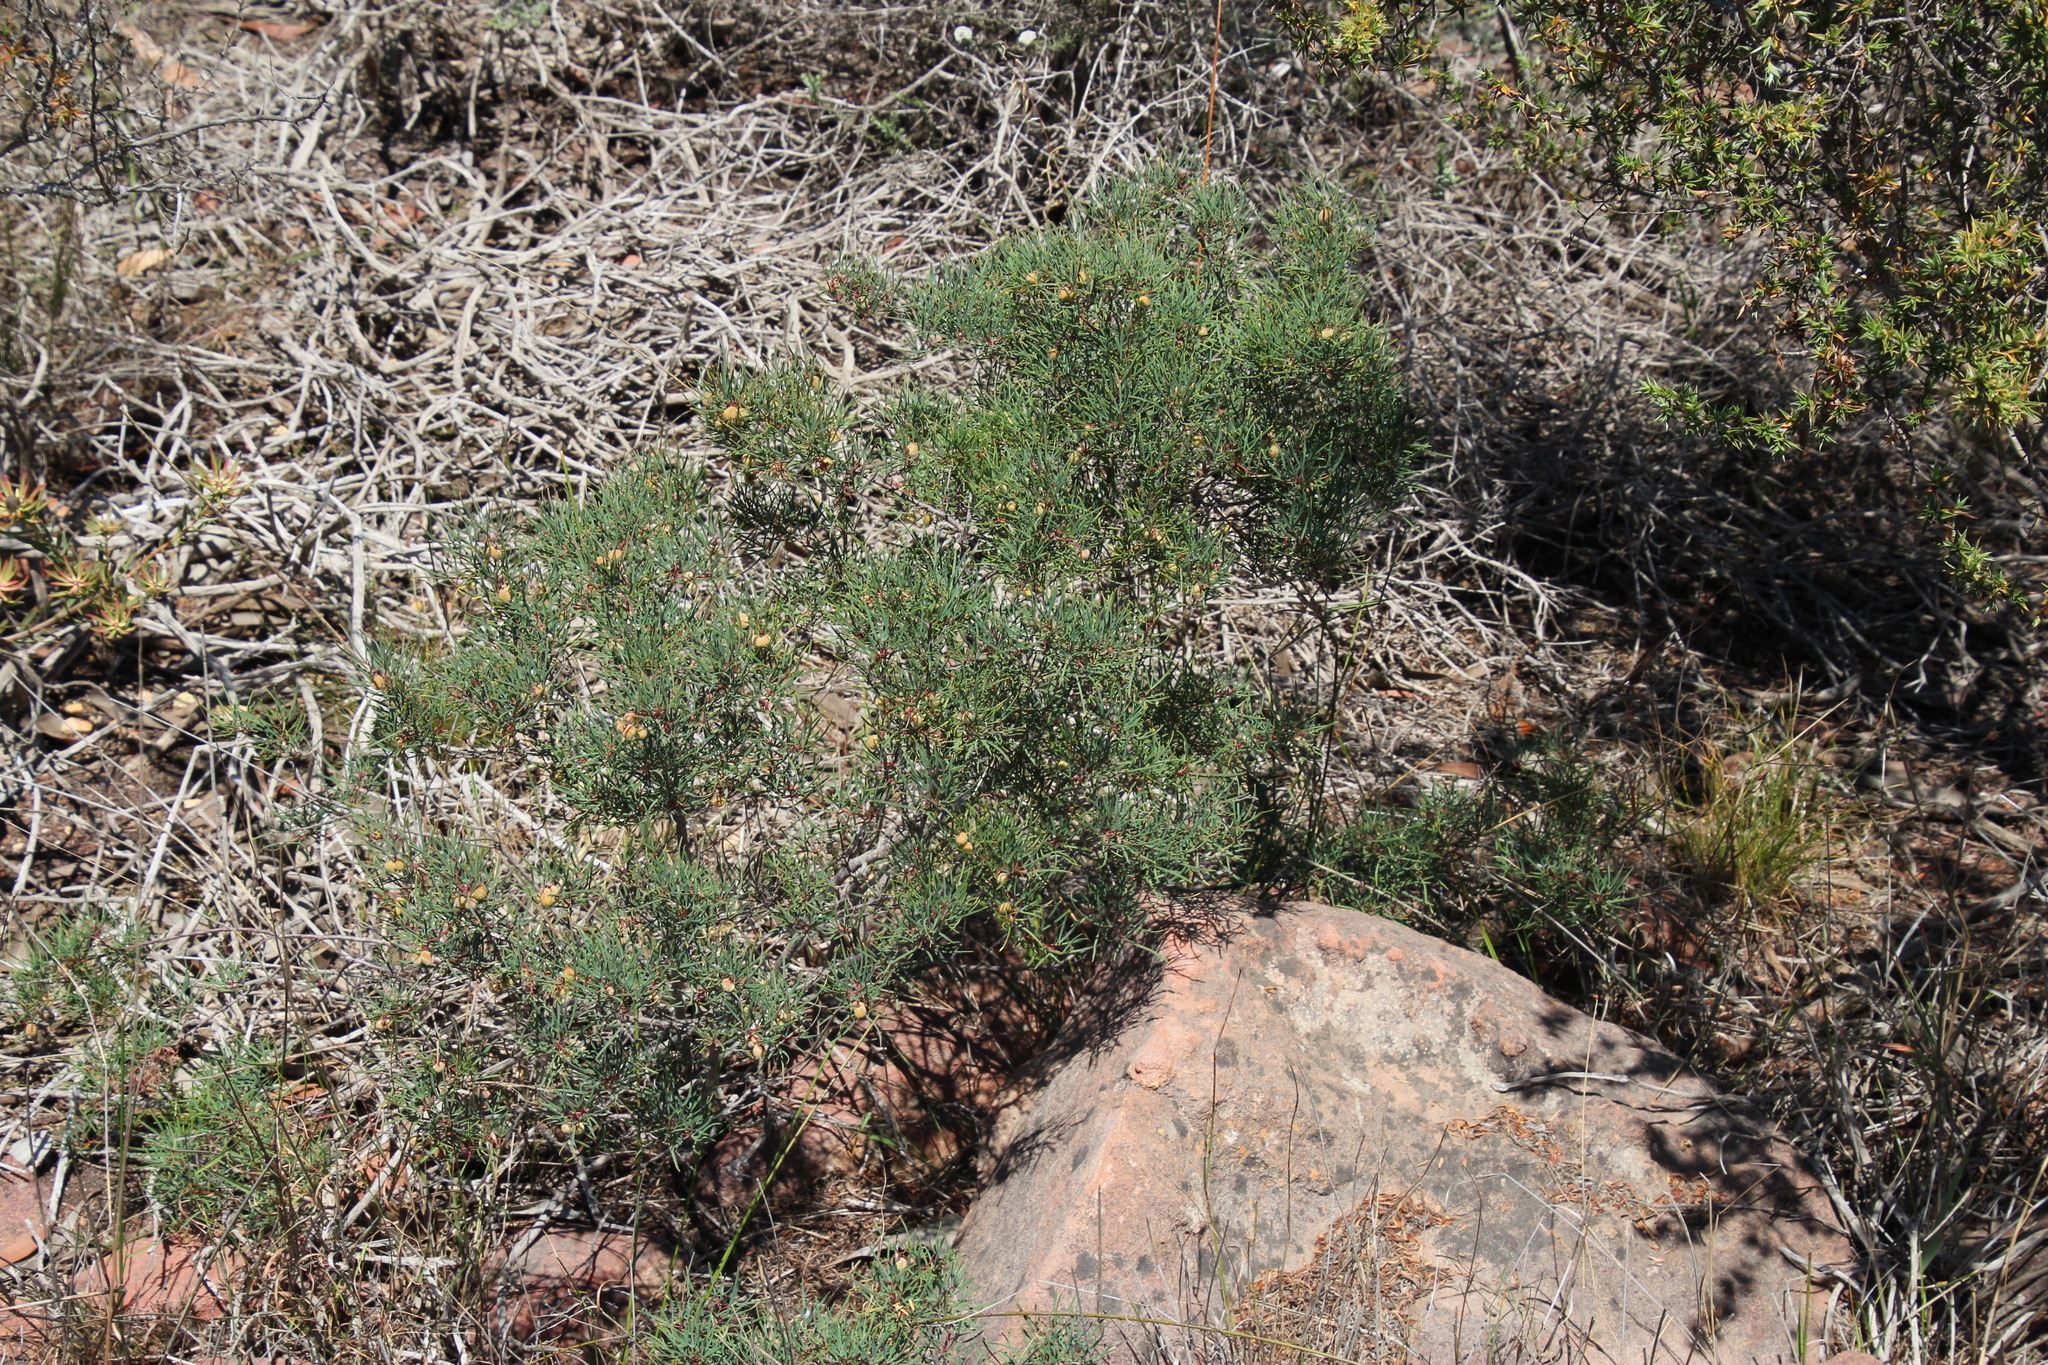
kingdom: Plantae
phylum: Tracheophyta
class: Magnoliopsida
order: Sapindales
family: Anacardiaceae
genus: Searsia
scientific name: Searsia rosmarinifolia
